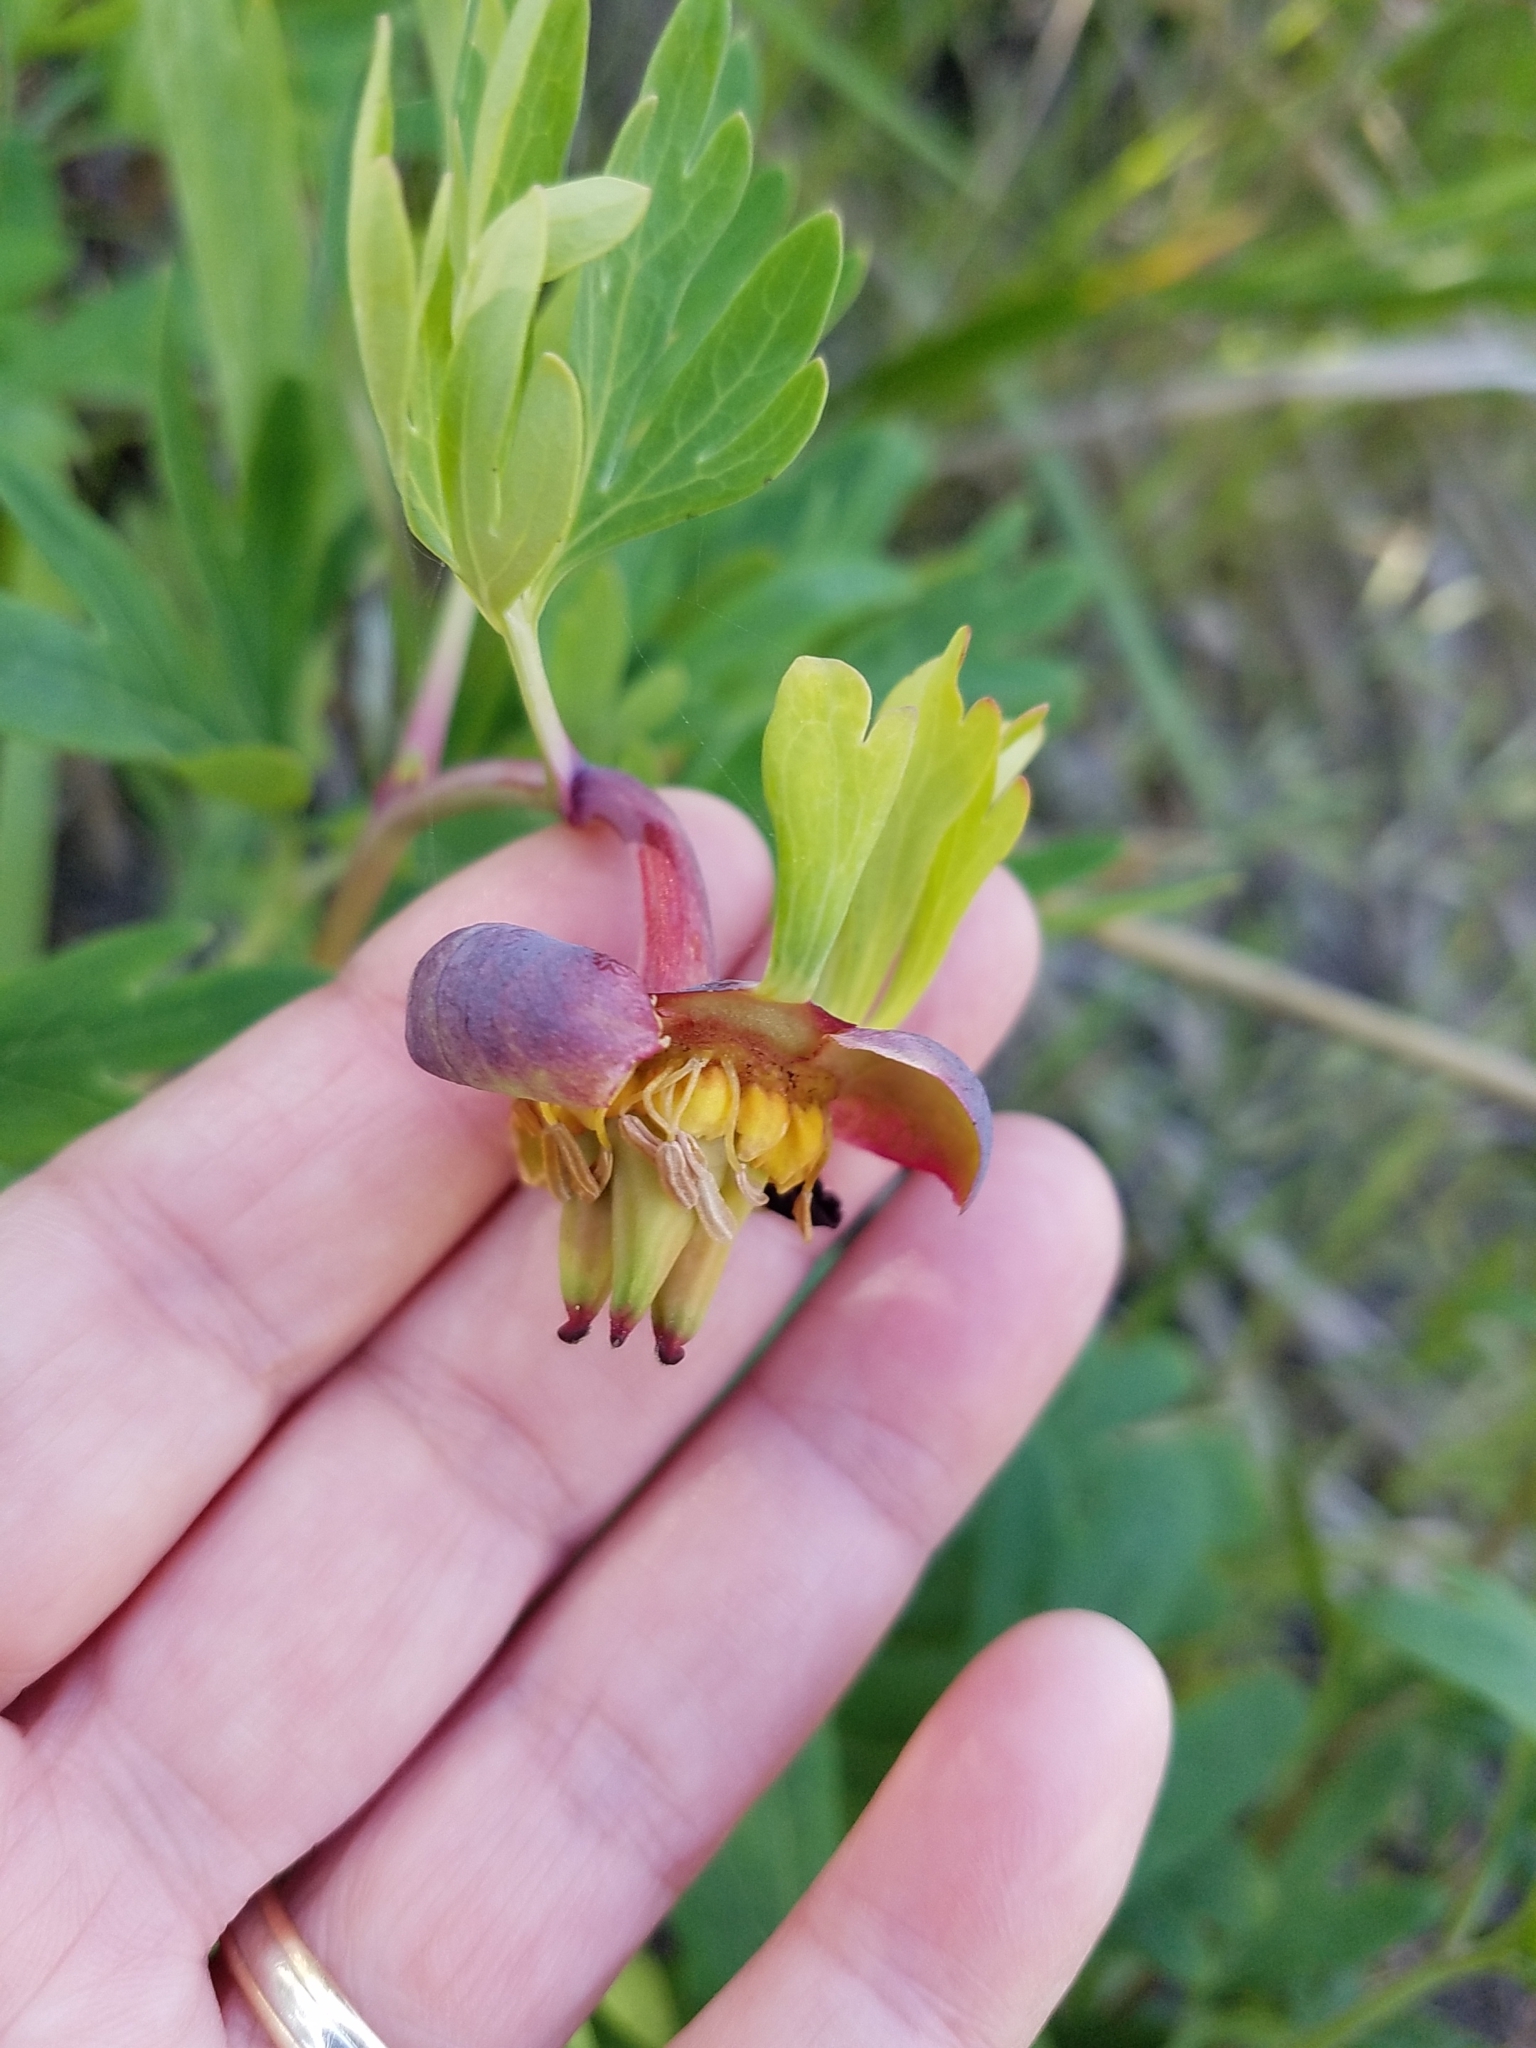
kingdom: Plantae
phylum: Tracheophyta
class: Magnoliopsida
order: Saxifragales
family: Paeoniaceae
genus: Paeonia
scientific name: Paeonia californica
